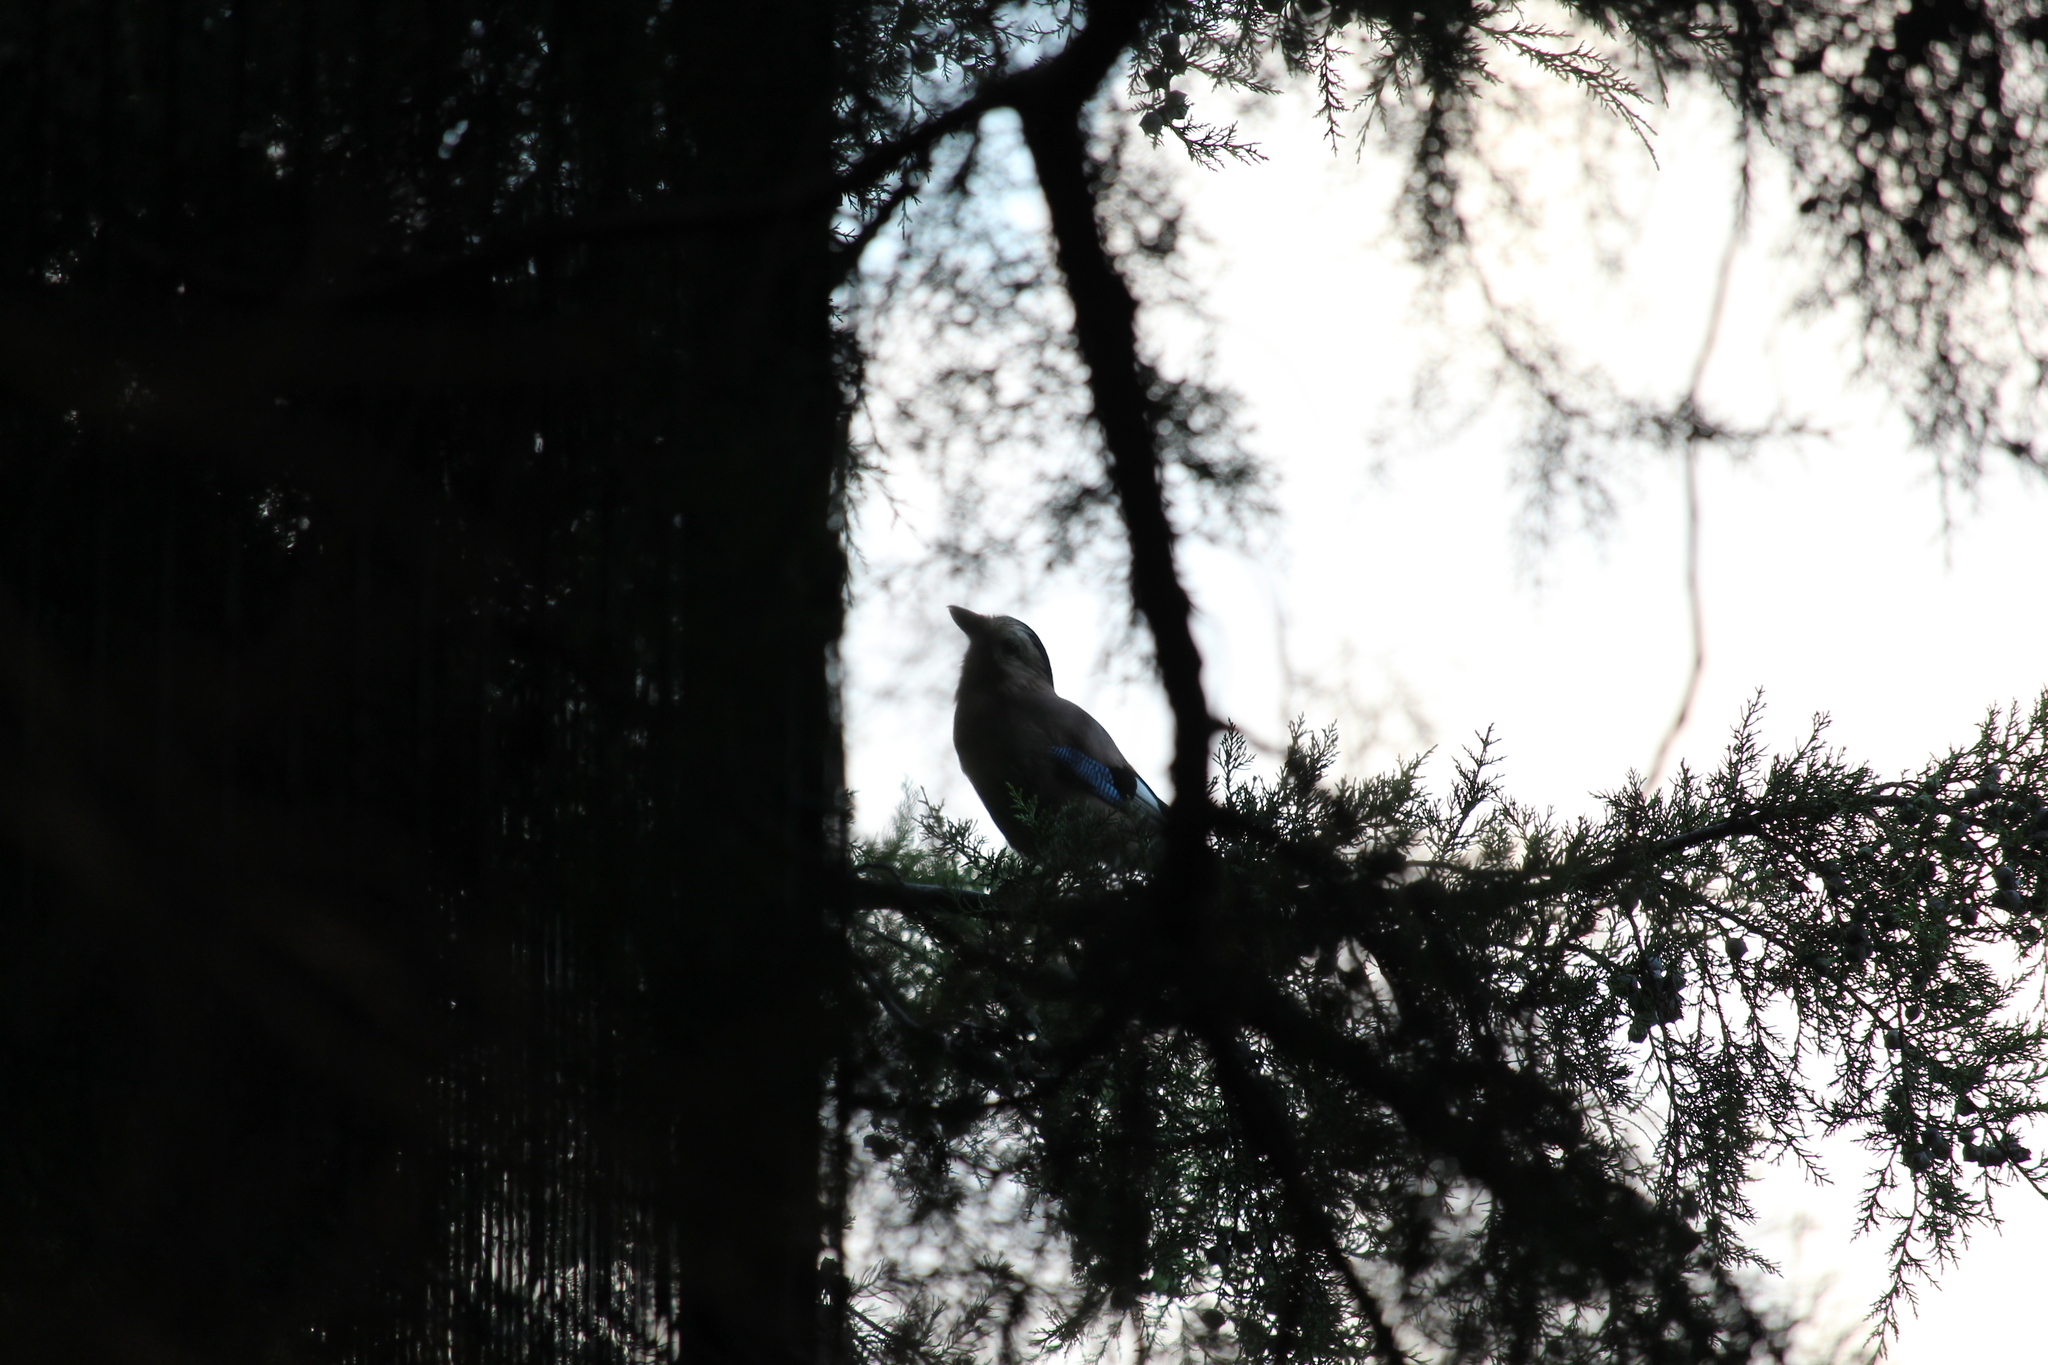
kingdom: Animalia
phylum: Chordata
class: Aves
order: Passeriformes
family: Corvidae
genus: Garrulus
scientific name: Garrulus glandarius
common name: Eurasian jay
